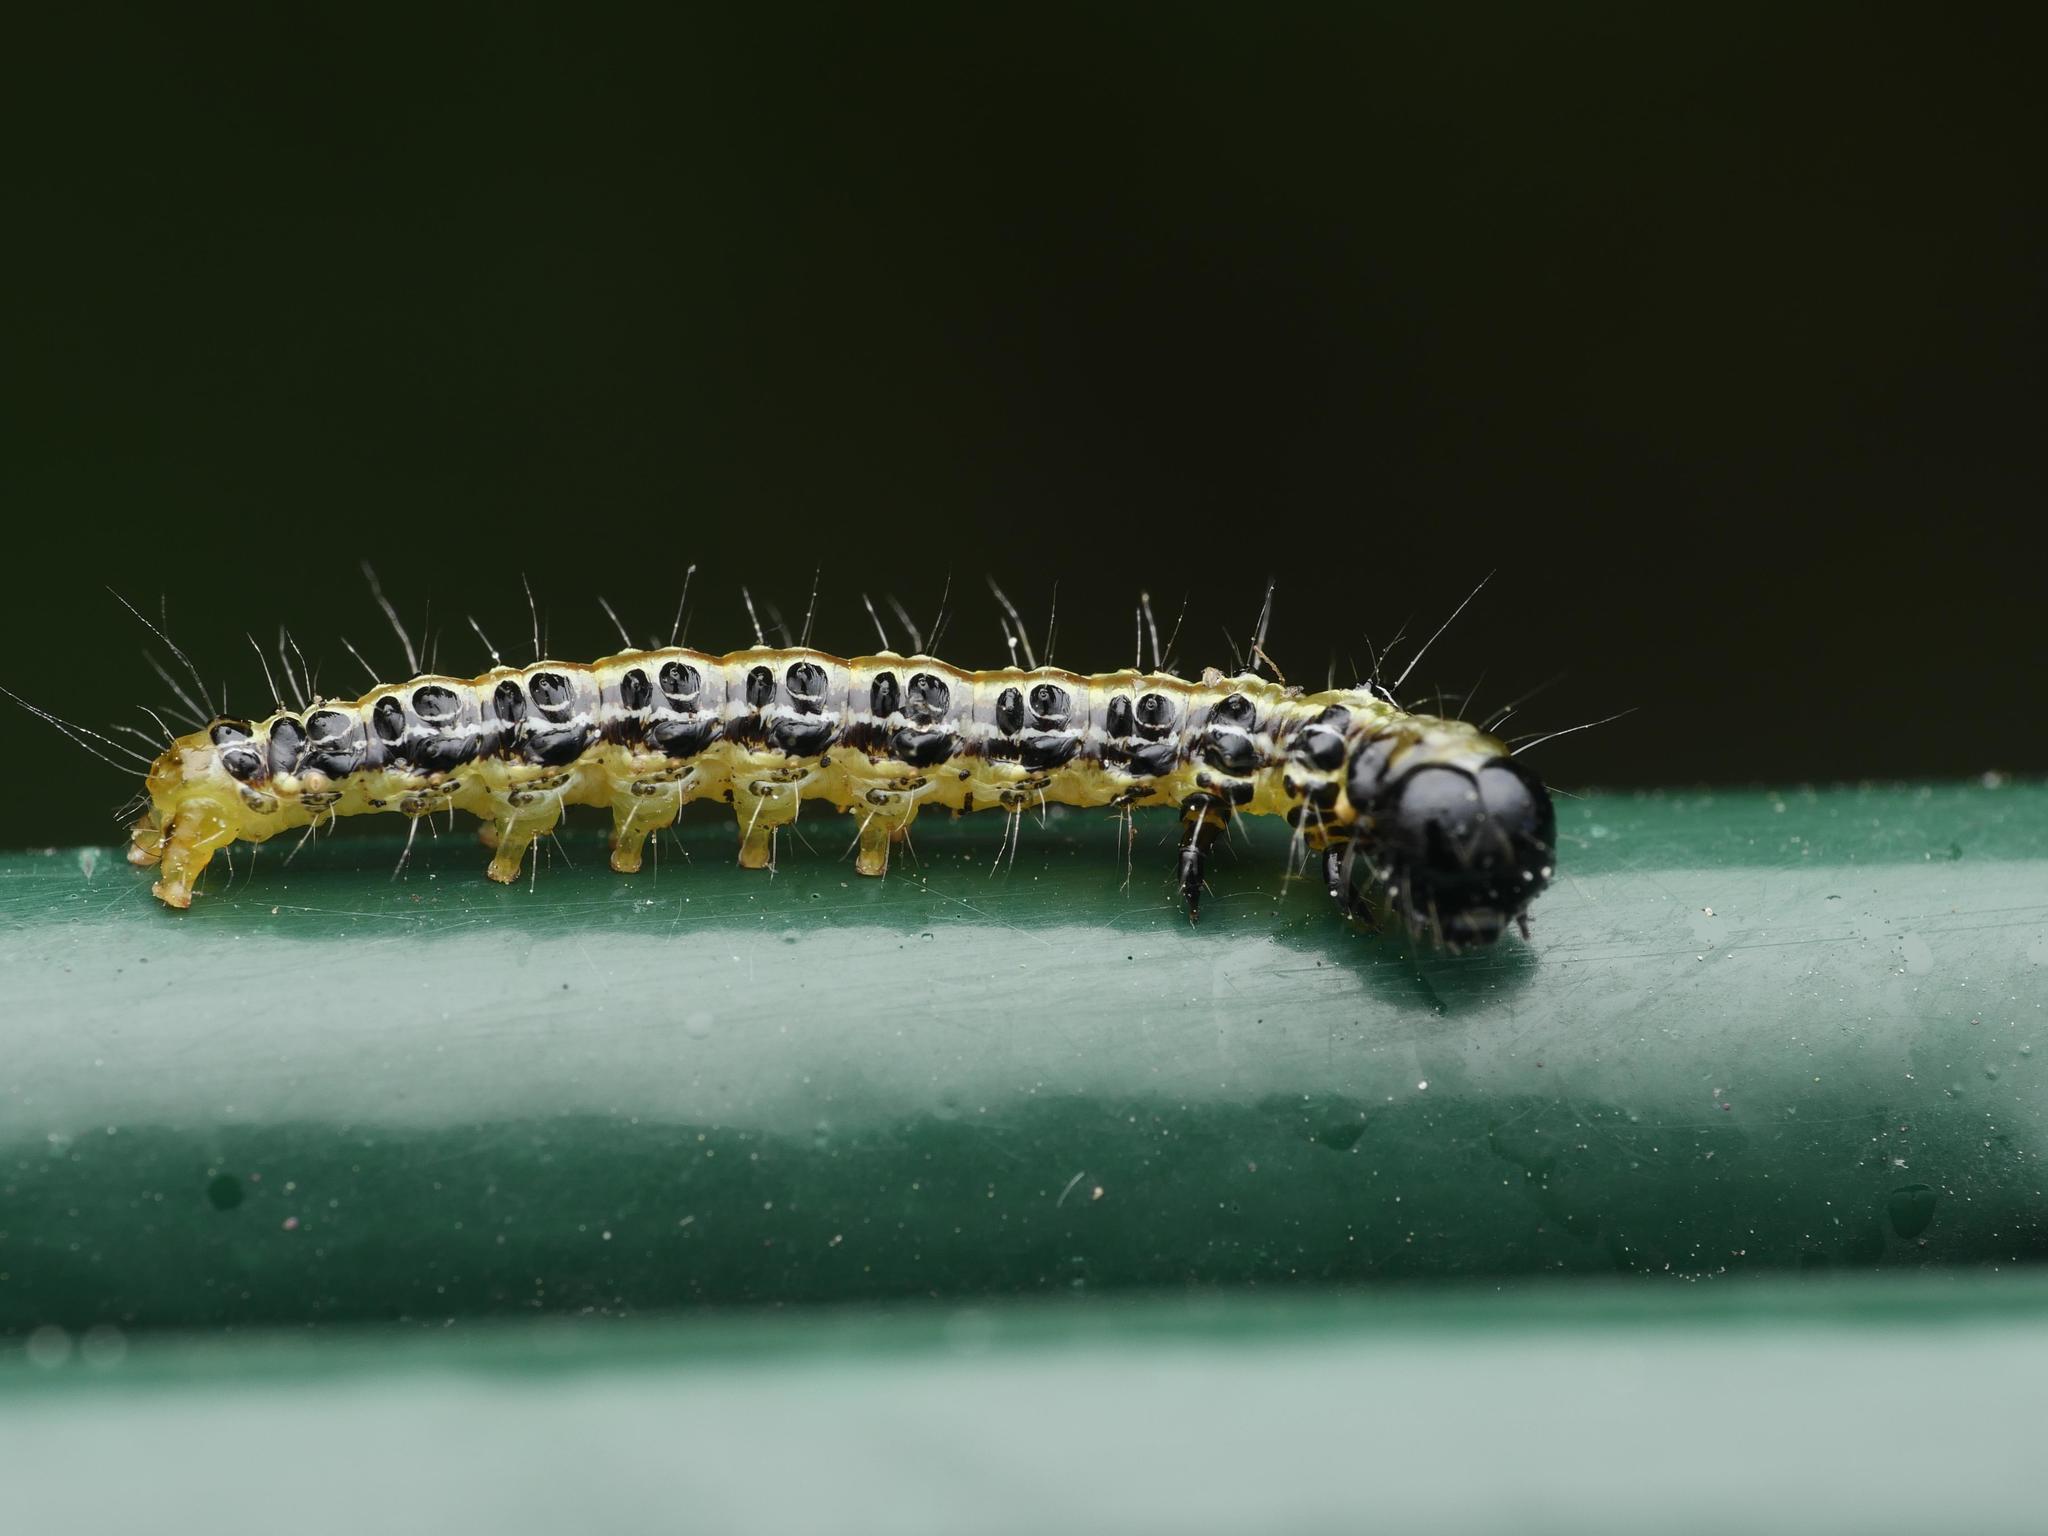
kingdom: Animalia
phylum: Arthropoda
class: Insecta
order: Lepidoptera
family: Crambidae
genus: Cydalima
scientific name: Cydalima perspectalis
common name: Box tree moth
